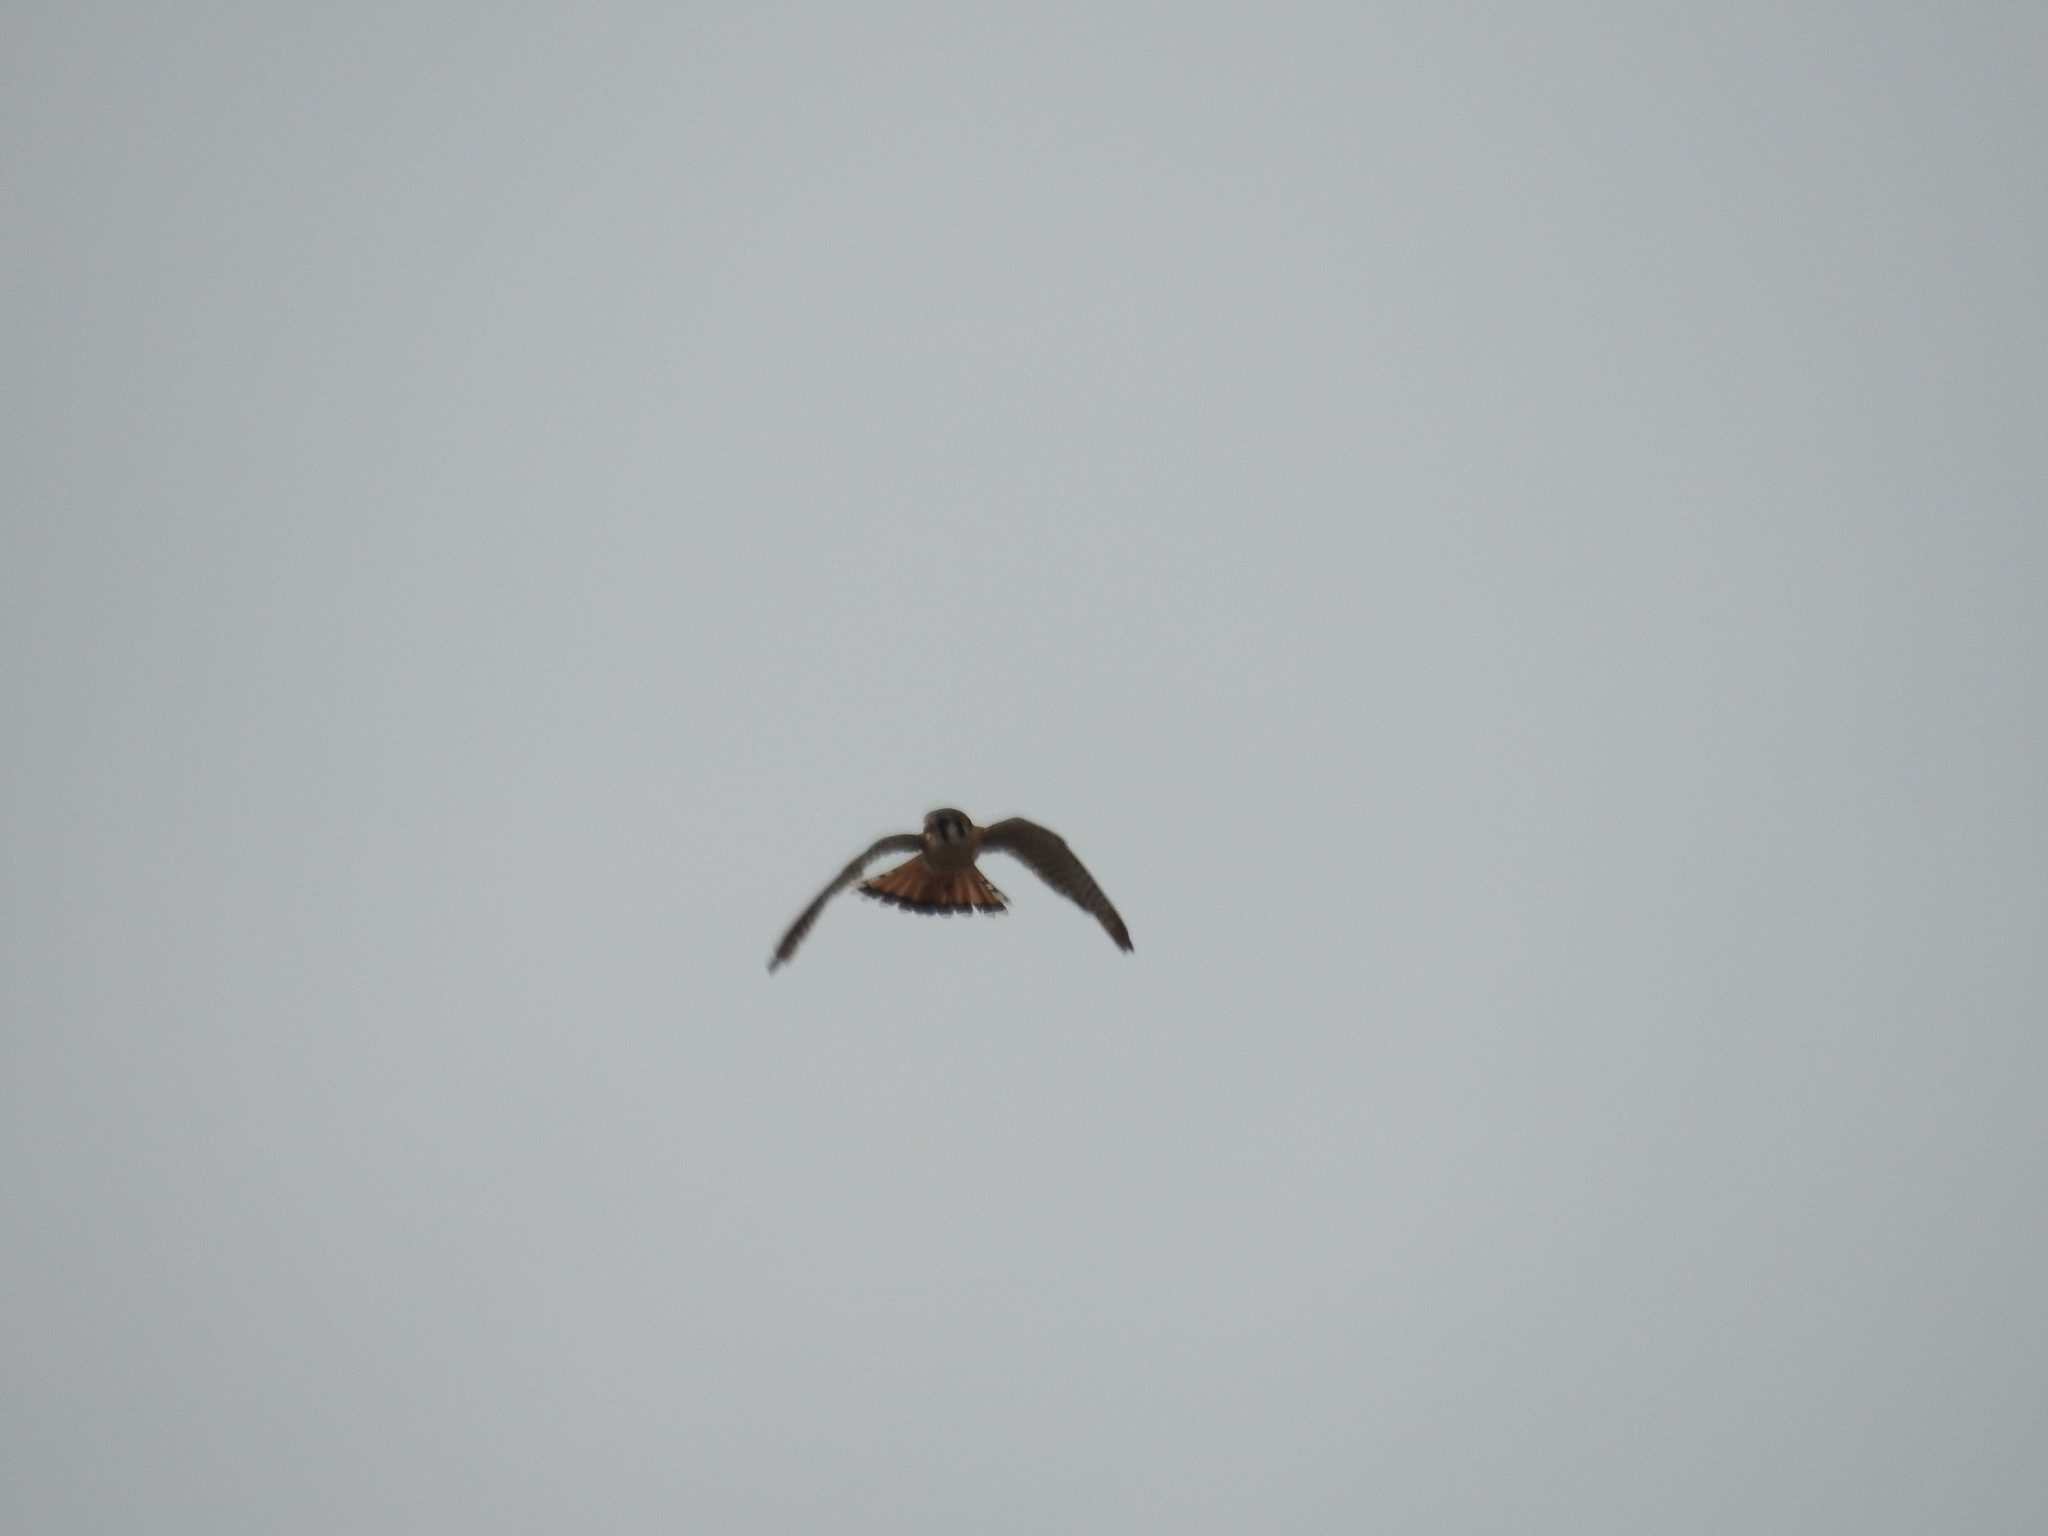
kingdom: Animalia
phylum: Chordata
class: Aves
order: Falconiformes
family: Falconidae
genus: Falco
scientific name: Falco sparverius
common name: American kestrel
